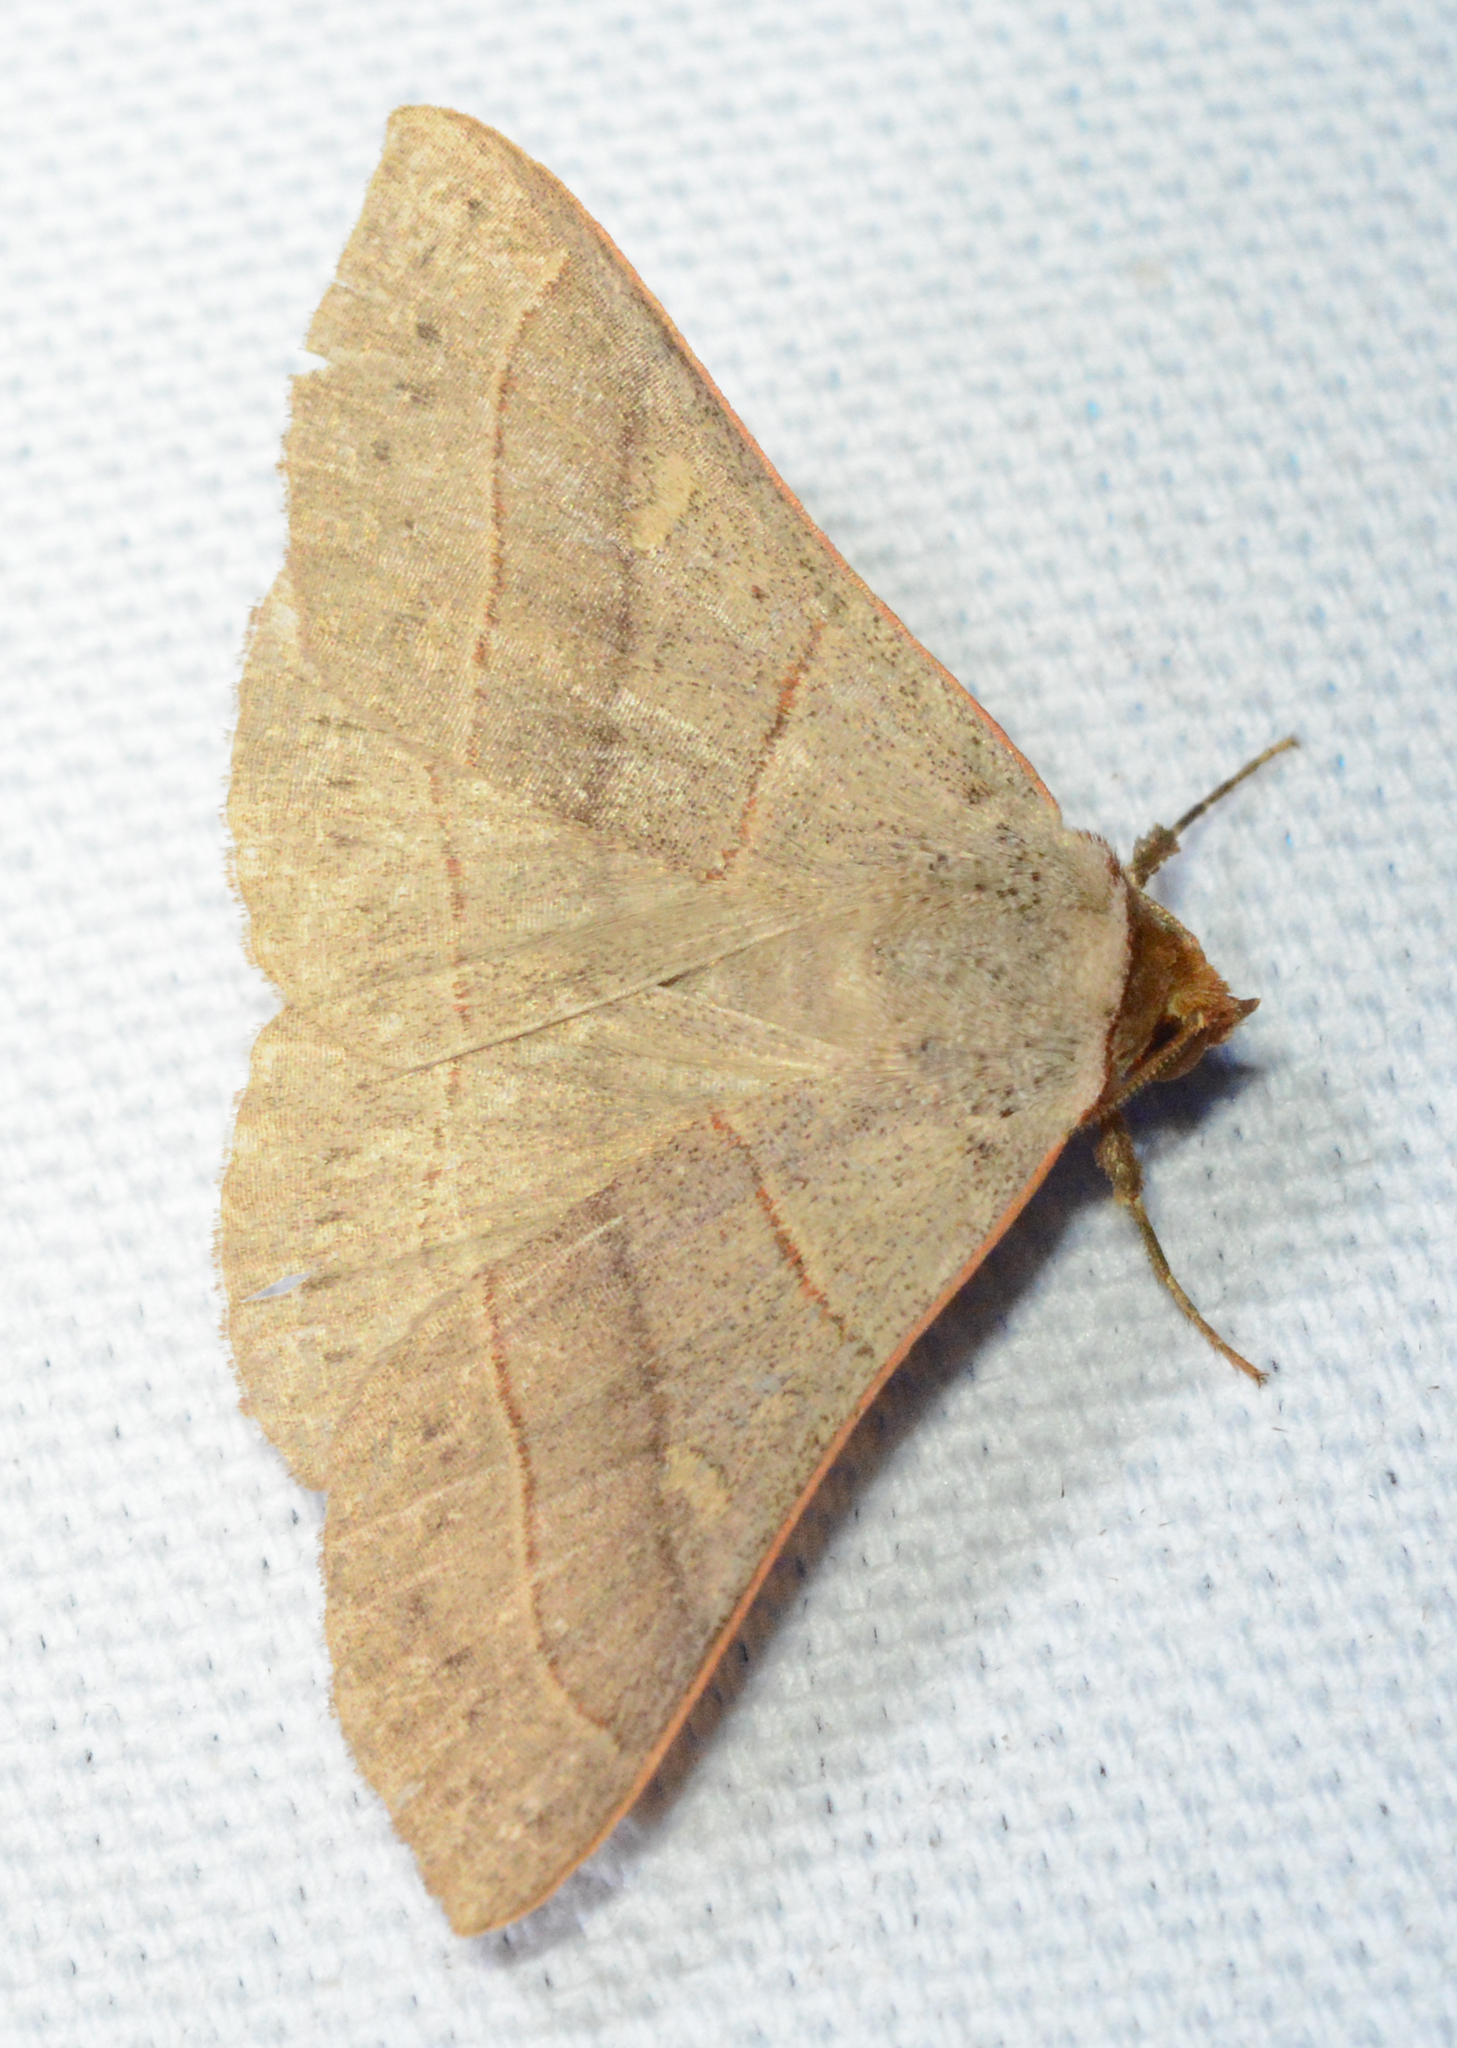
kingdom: Animalia
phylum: Arthropoda
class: Insecta
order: Lepidoptera
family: Erebidae
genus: Panopoda
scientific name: Panopoda rufimargo
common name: Red-lined panopoda moth
